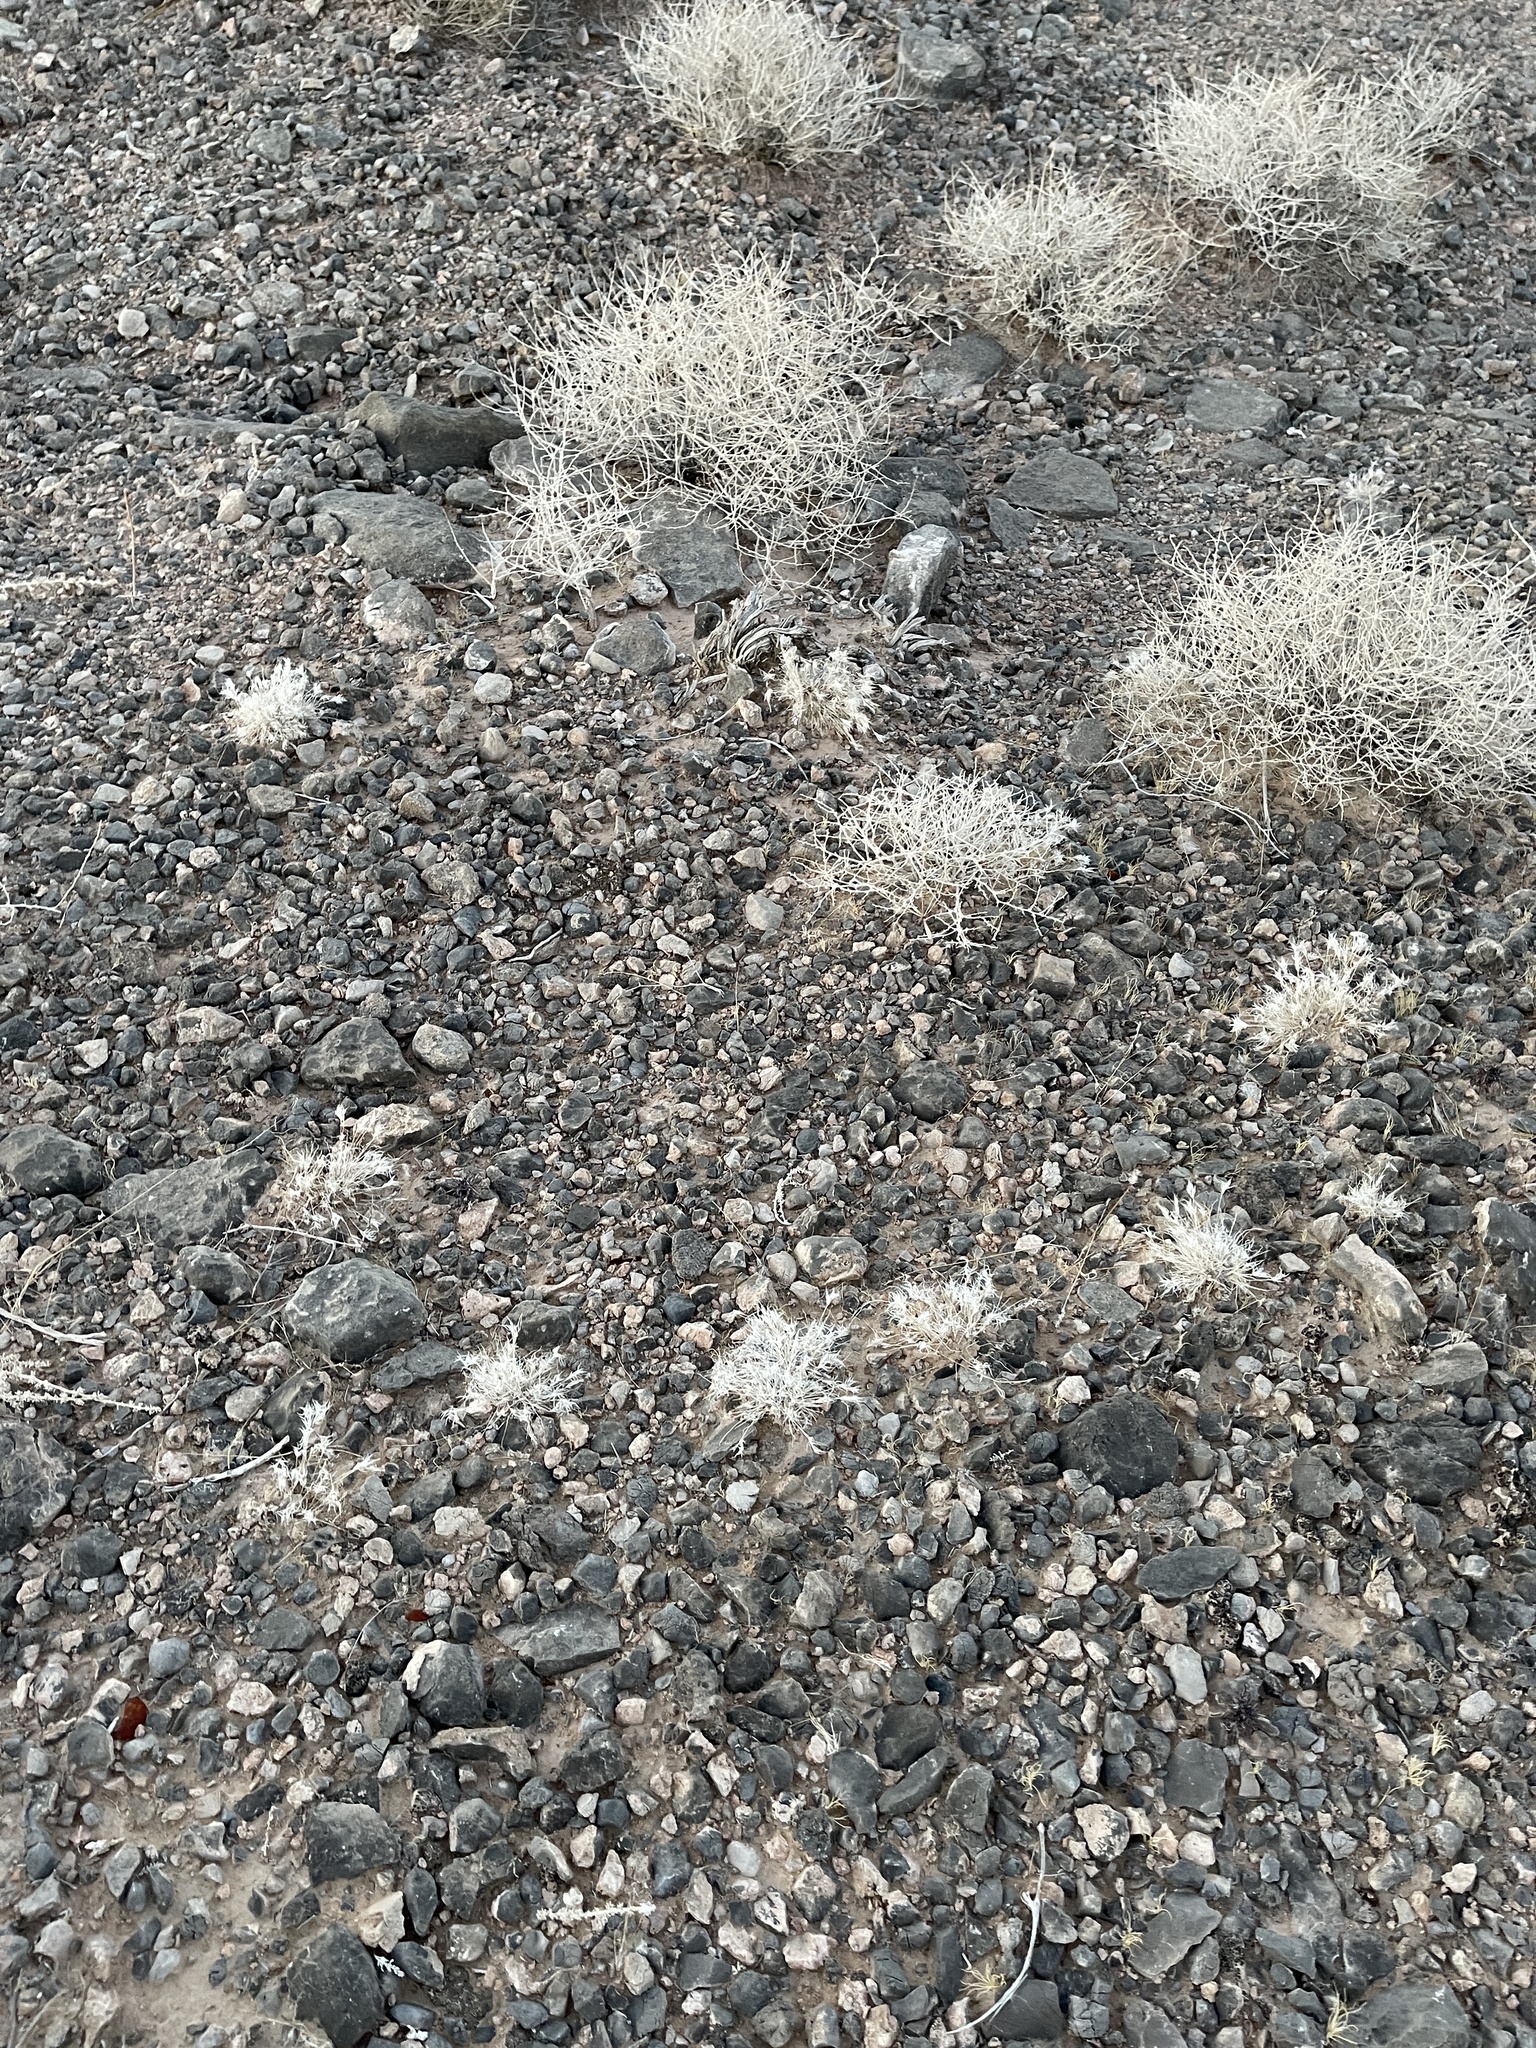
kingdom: Plantae
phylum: Tracheophyta
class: Liliopsida
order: Poales
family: Poaceae
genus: Dasyochloa
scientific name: Dasyochloa pulchella
